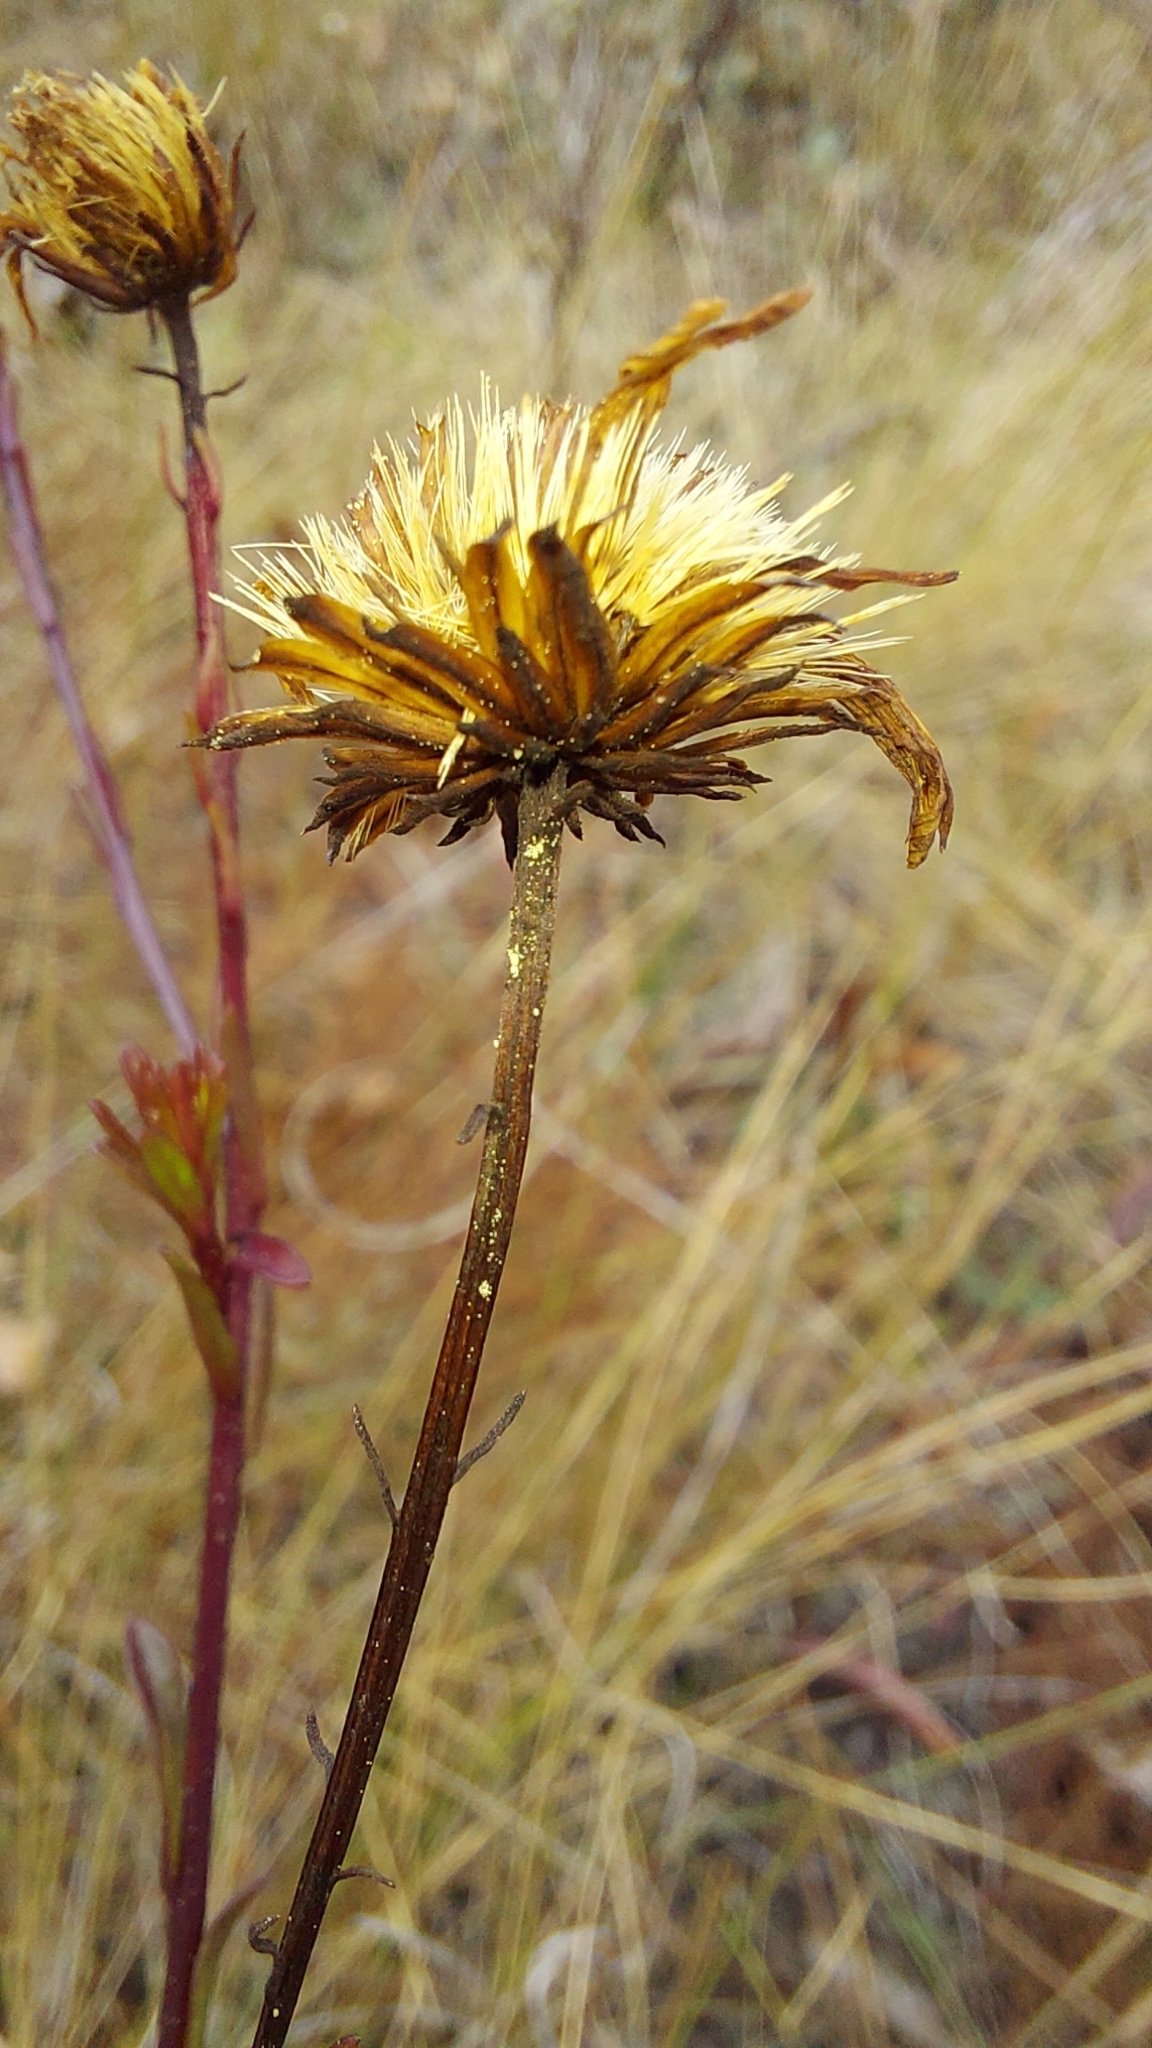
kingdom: Plantae
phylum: Tracheophyta
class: Magnoliopsida
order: Asterales
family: Asteraceae
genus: Chrysopsis
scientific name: Chrysopsis linearifolia
